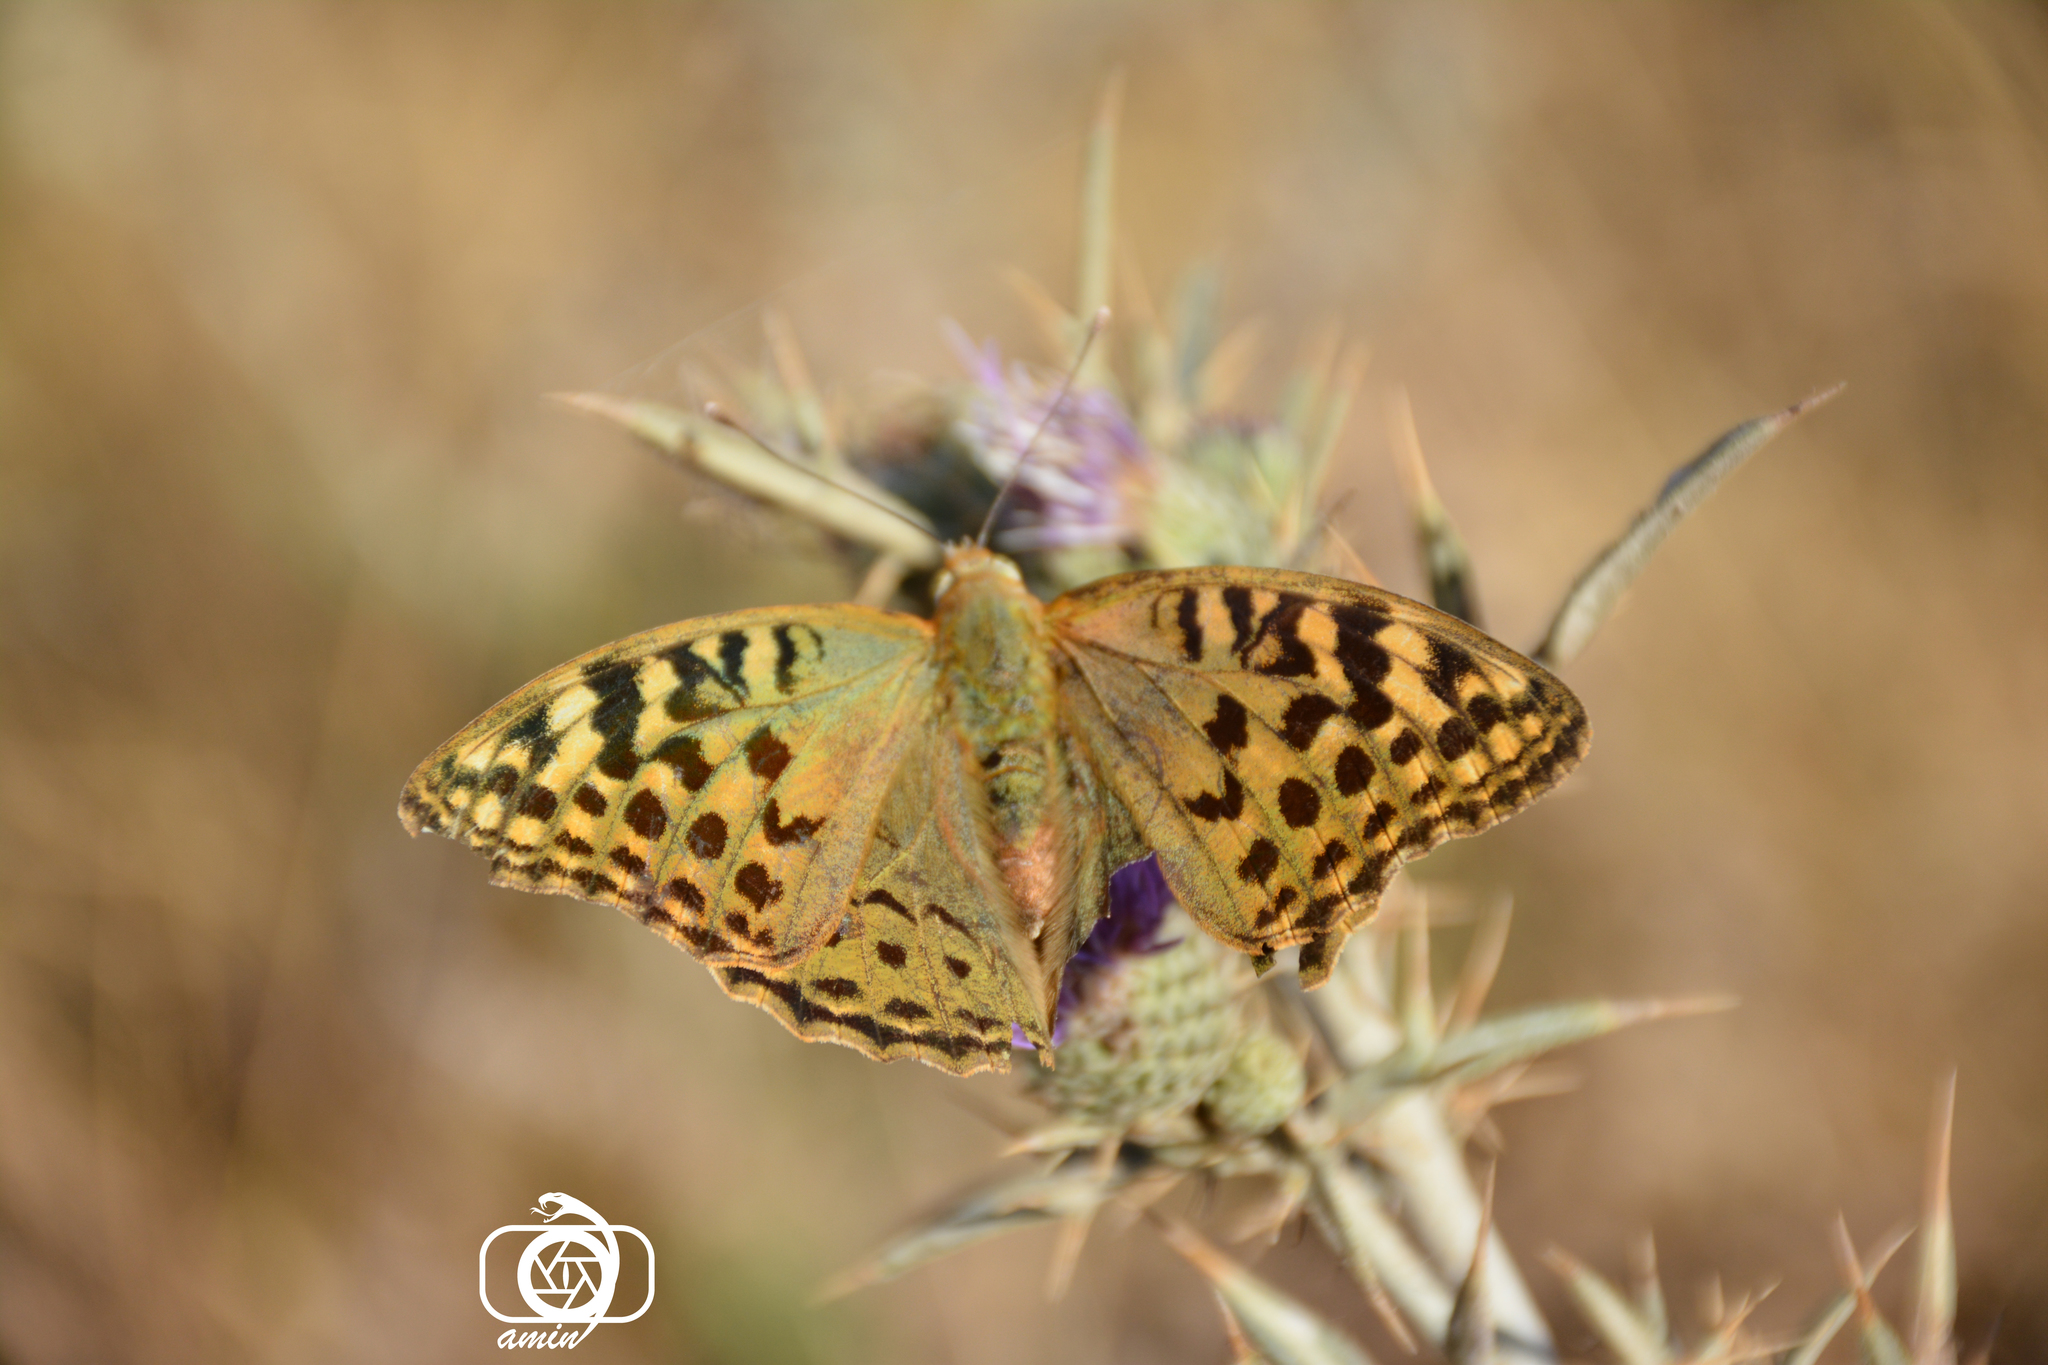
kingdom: Animalia
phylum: Arthropoda
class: Insecta
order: Lepidoptera
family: Nymphalidae
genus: Damora
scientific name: Damora pandora
